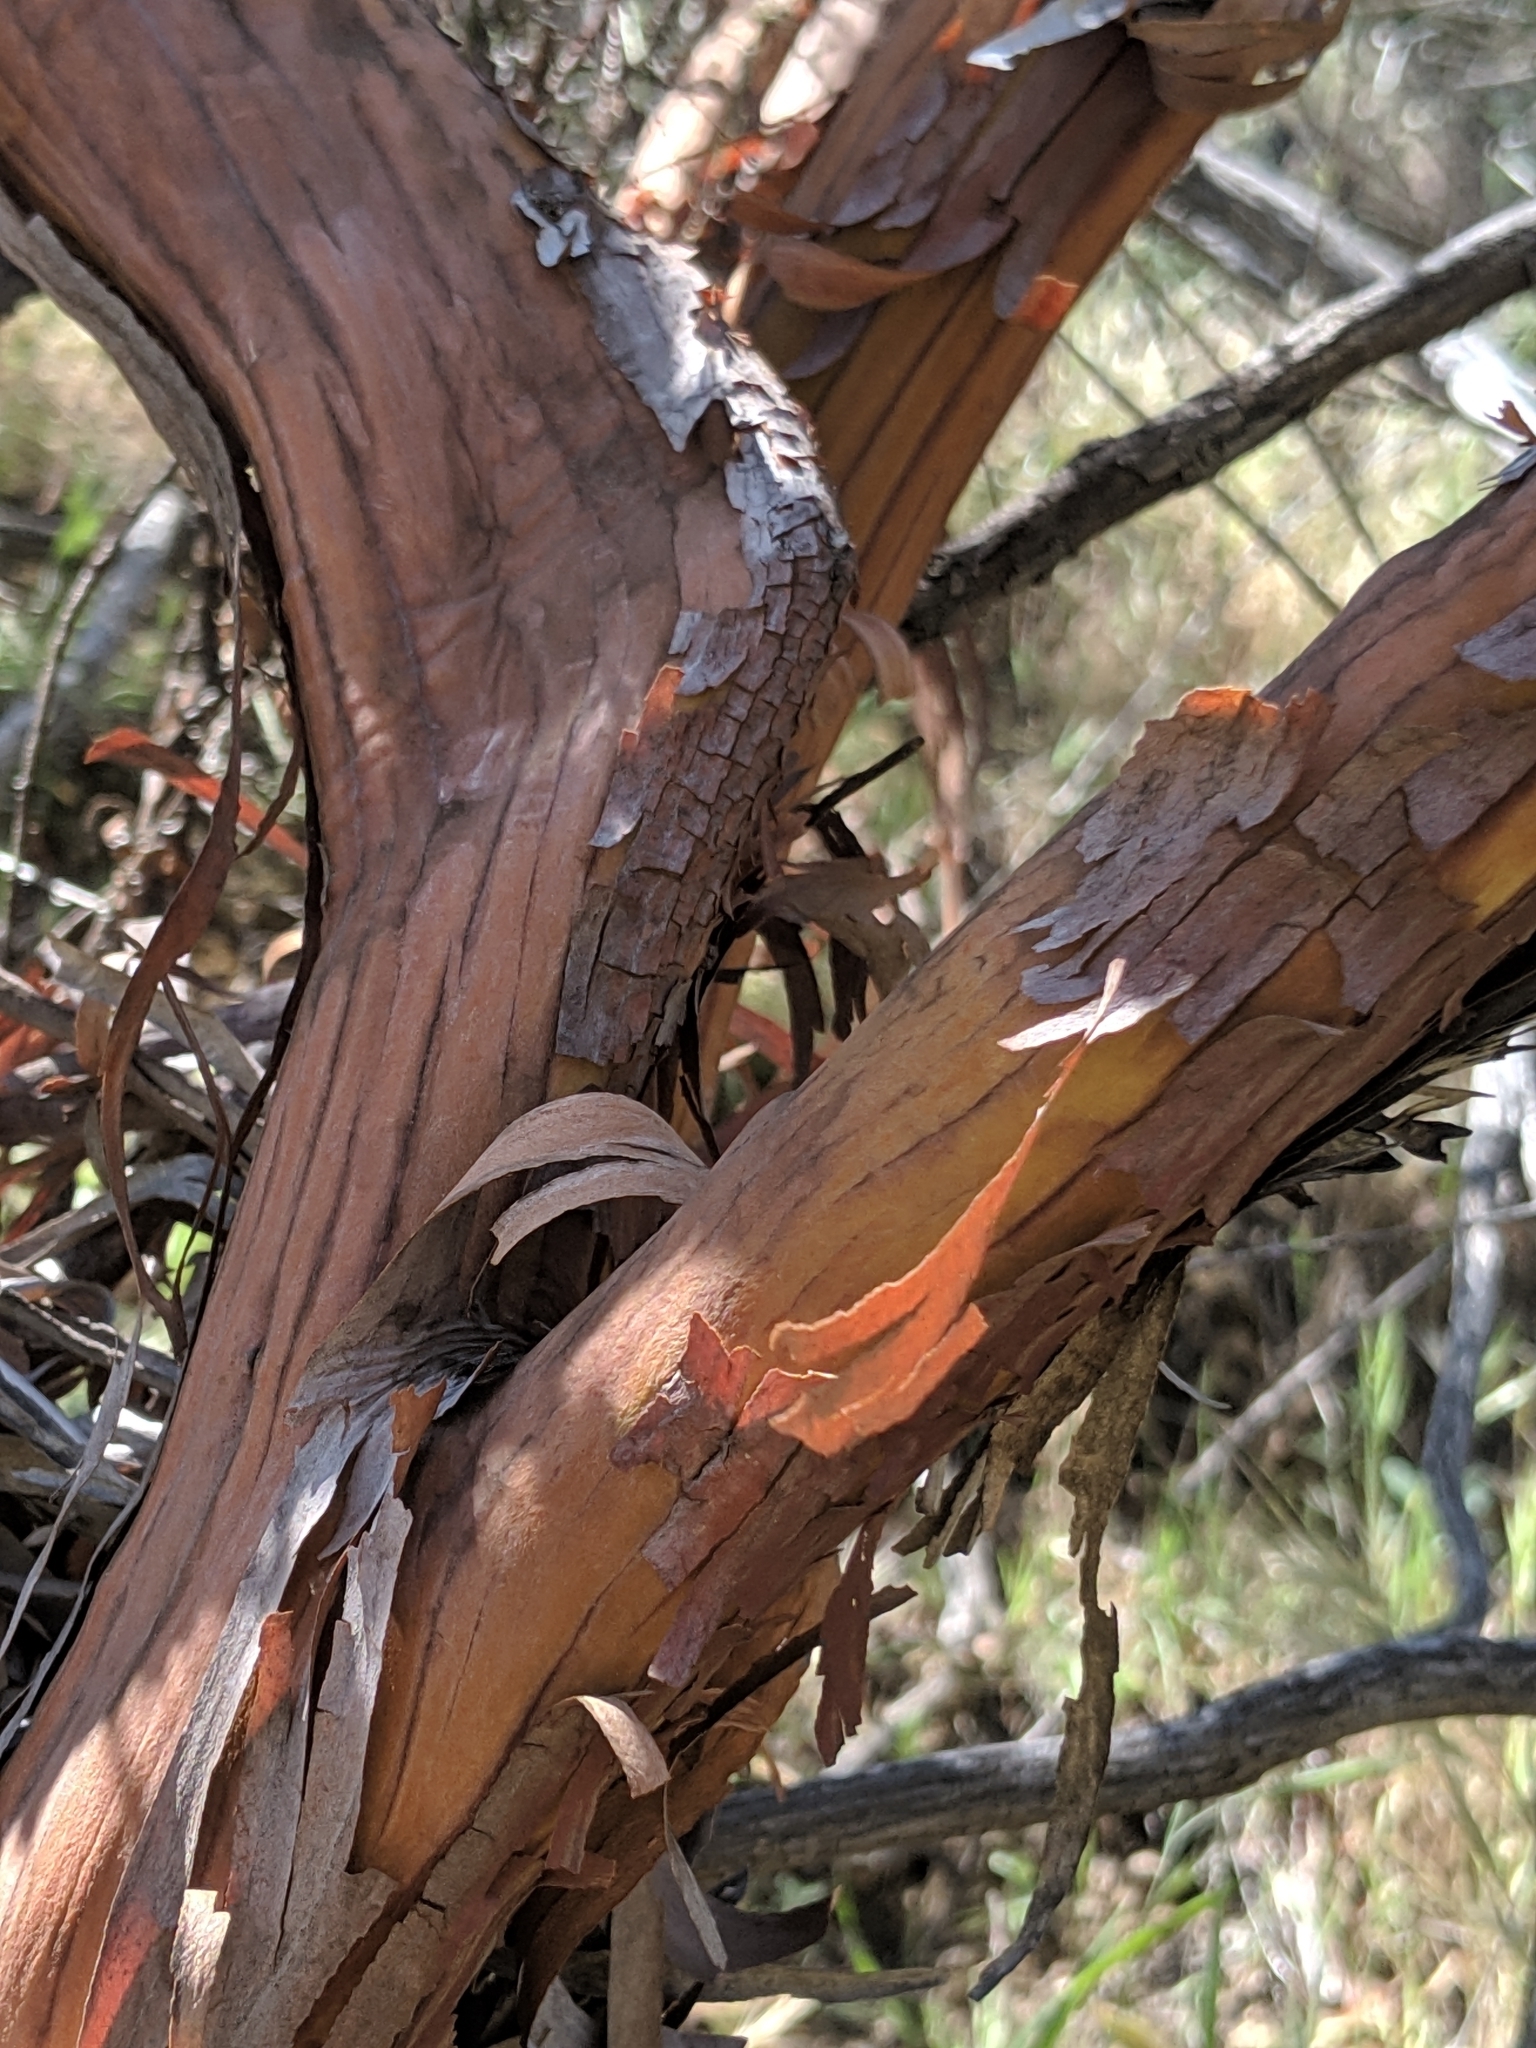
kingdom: Plantae
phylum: Tracheophyta
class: Magnoliopsida
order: Rosales
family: Rosaceae
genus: Adenostoma
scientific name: Adenostoma sparsifolium
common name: Red shank
